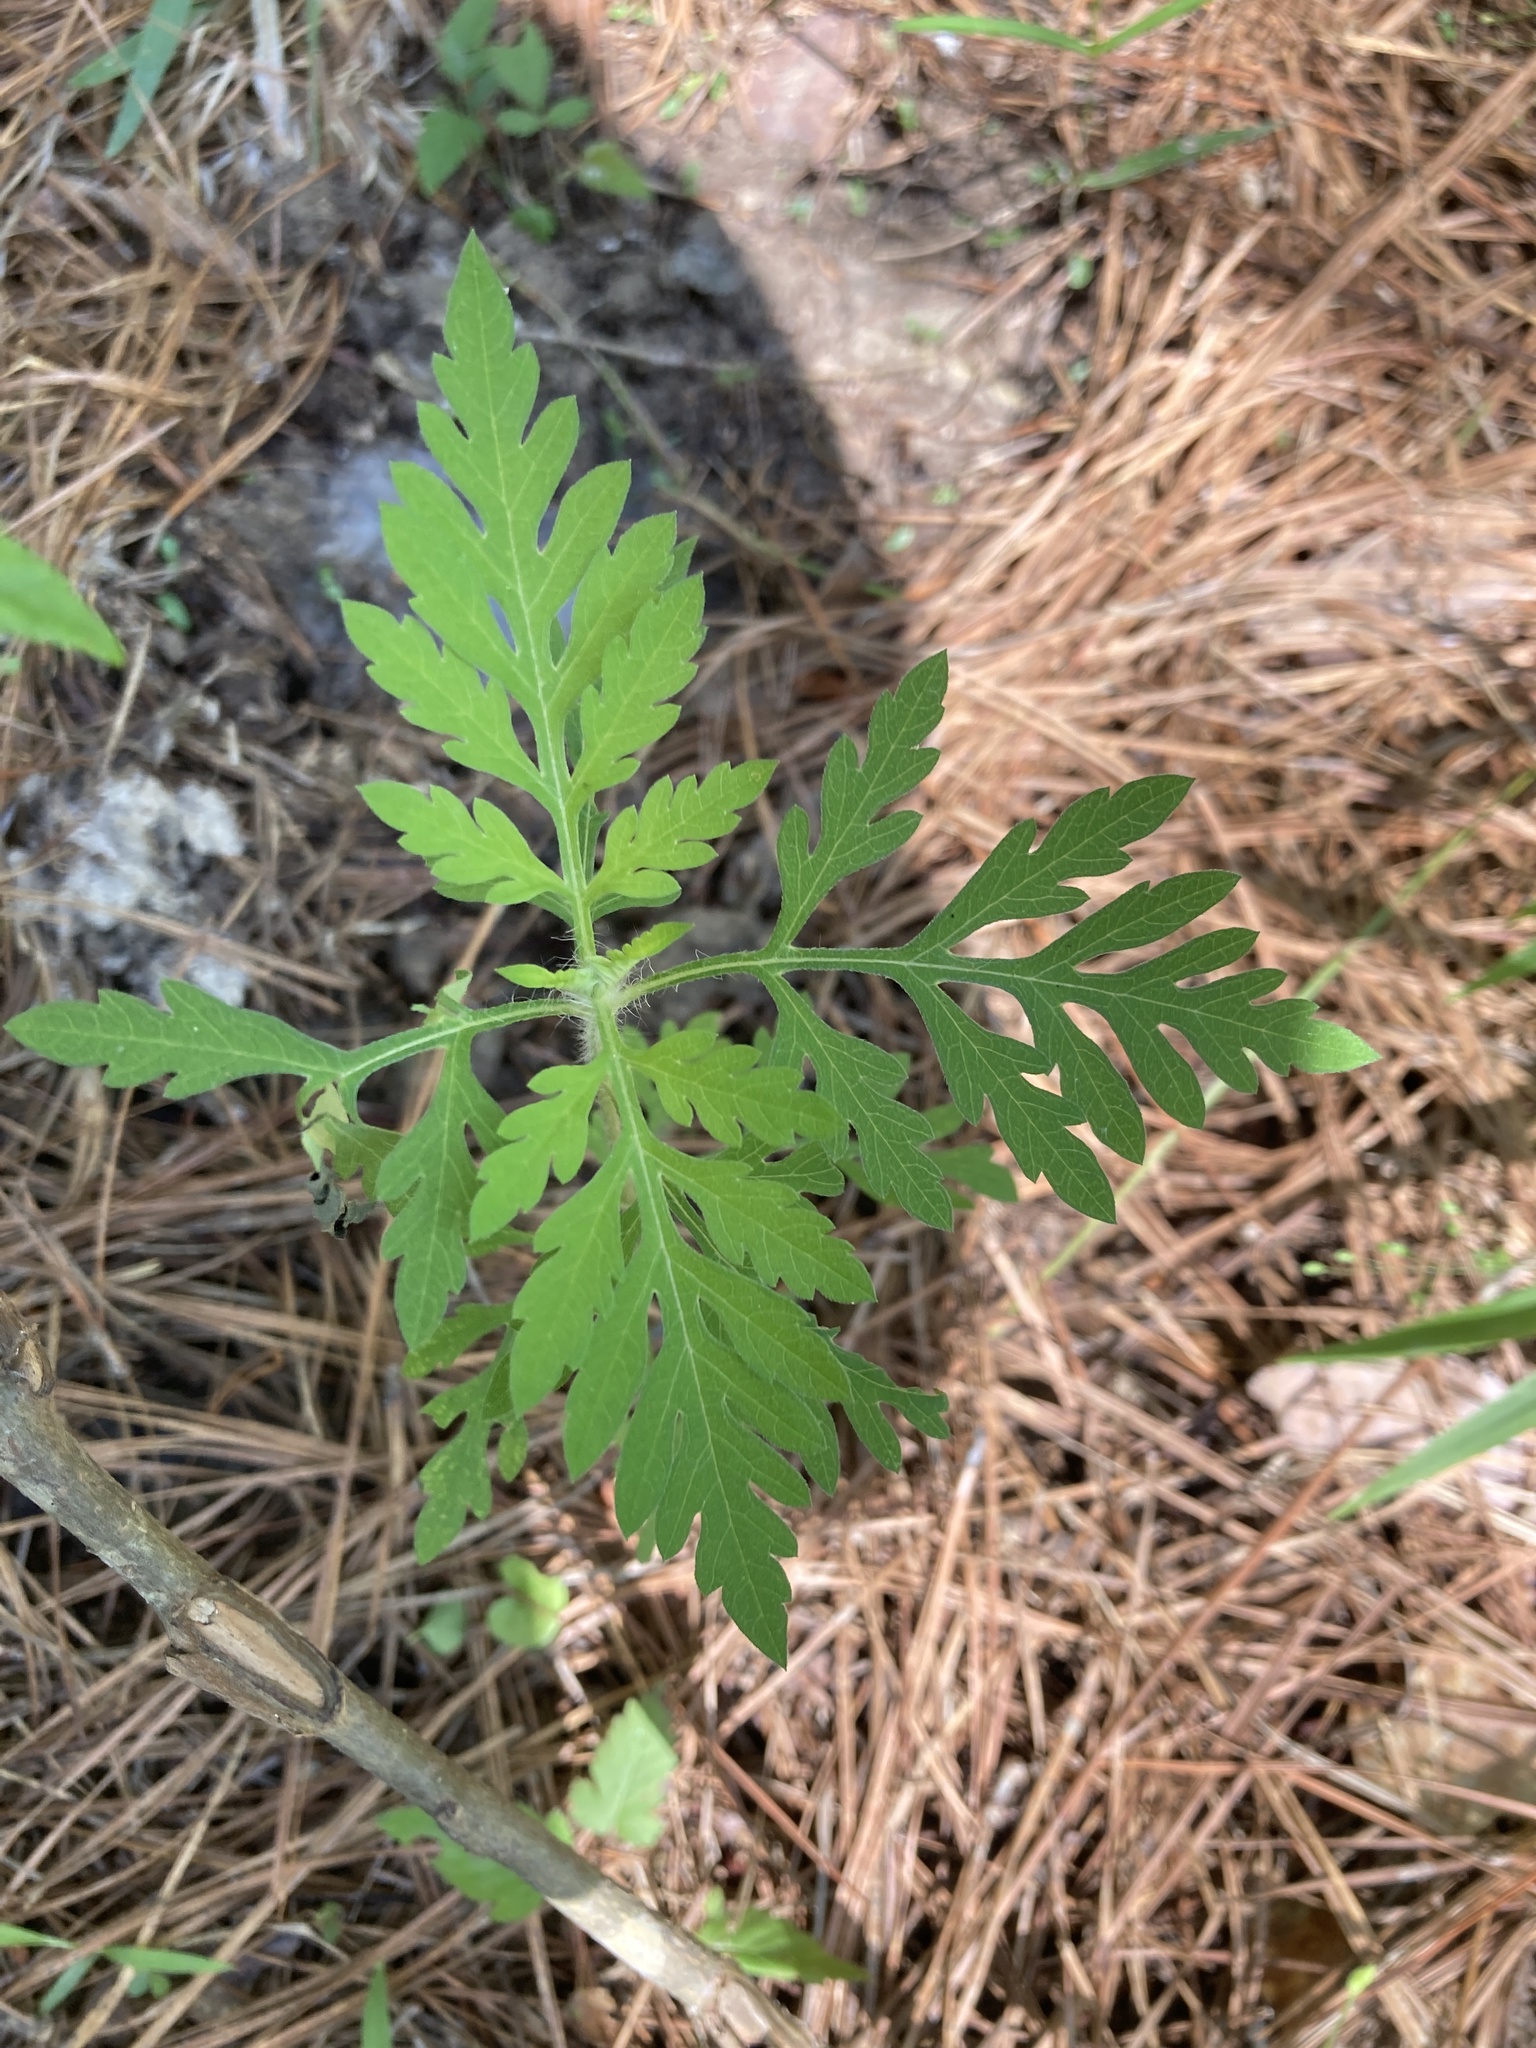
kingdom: Plantae
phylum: Tracheophyta
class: Magnoliopsida
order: Asterales
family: Asteraceae
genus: Ambrosia
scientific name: Ambrosia artemisiifolia
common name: Annual ragweed
